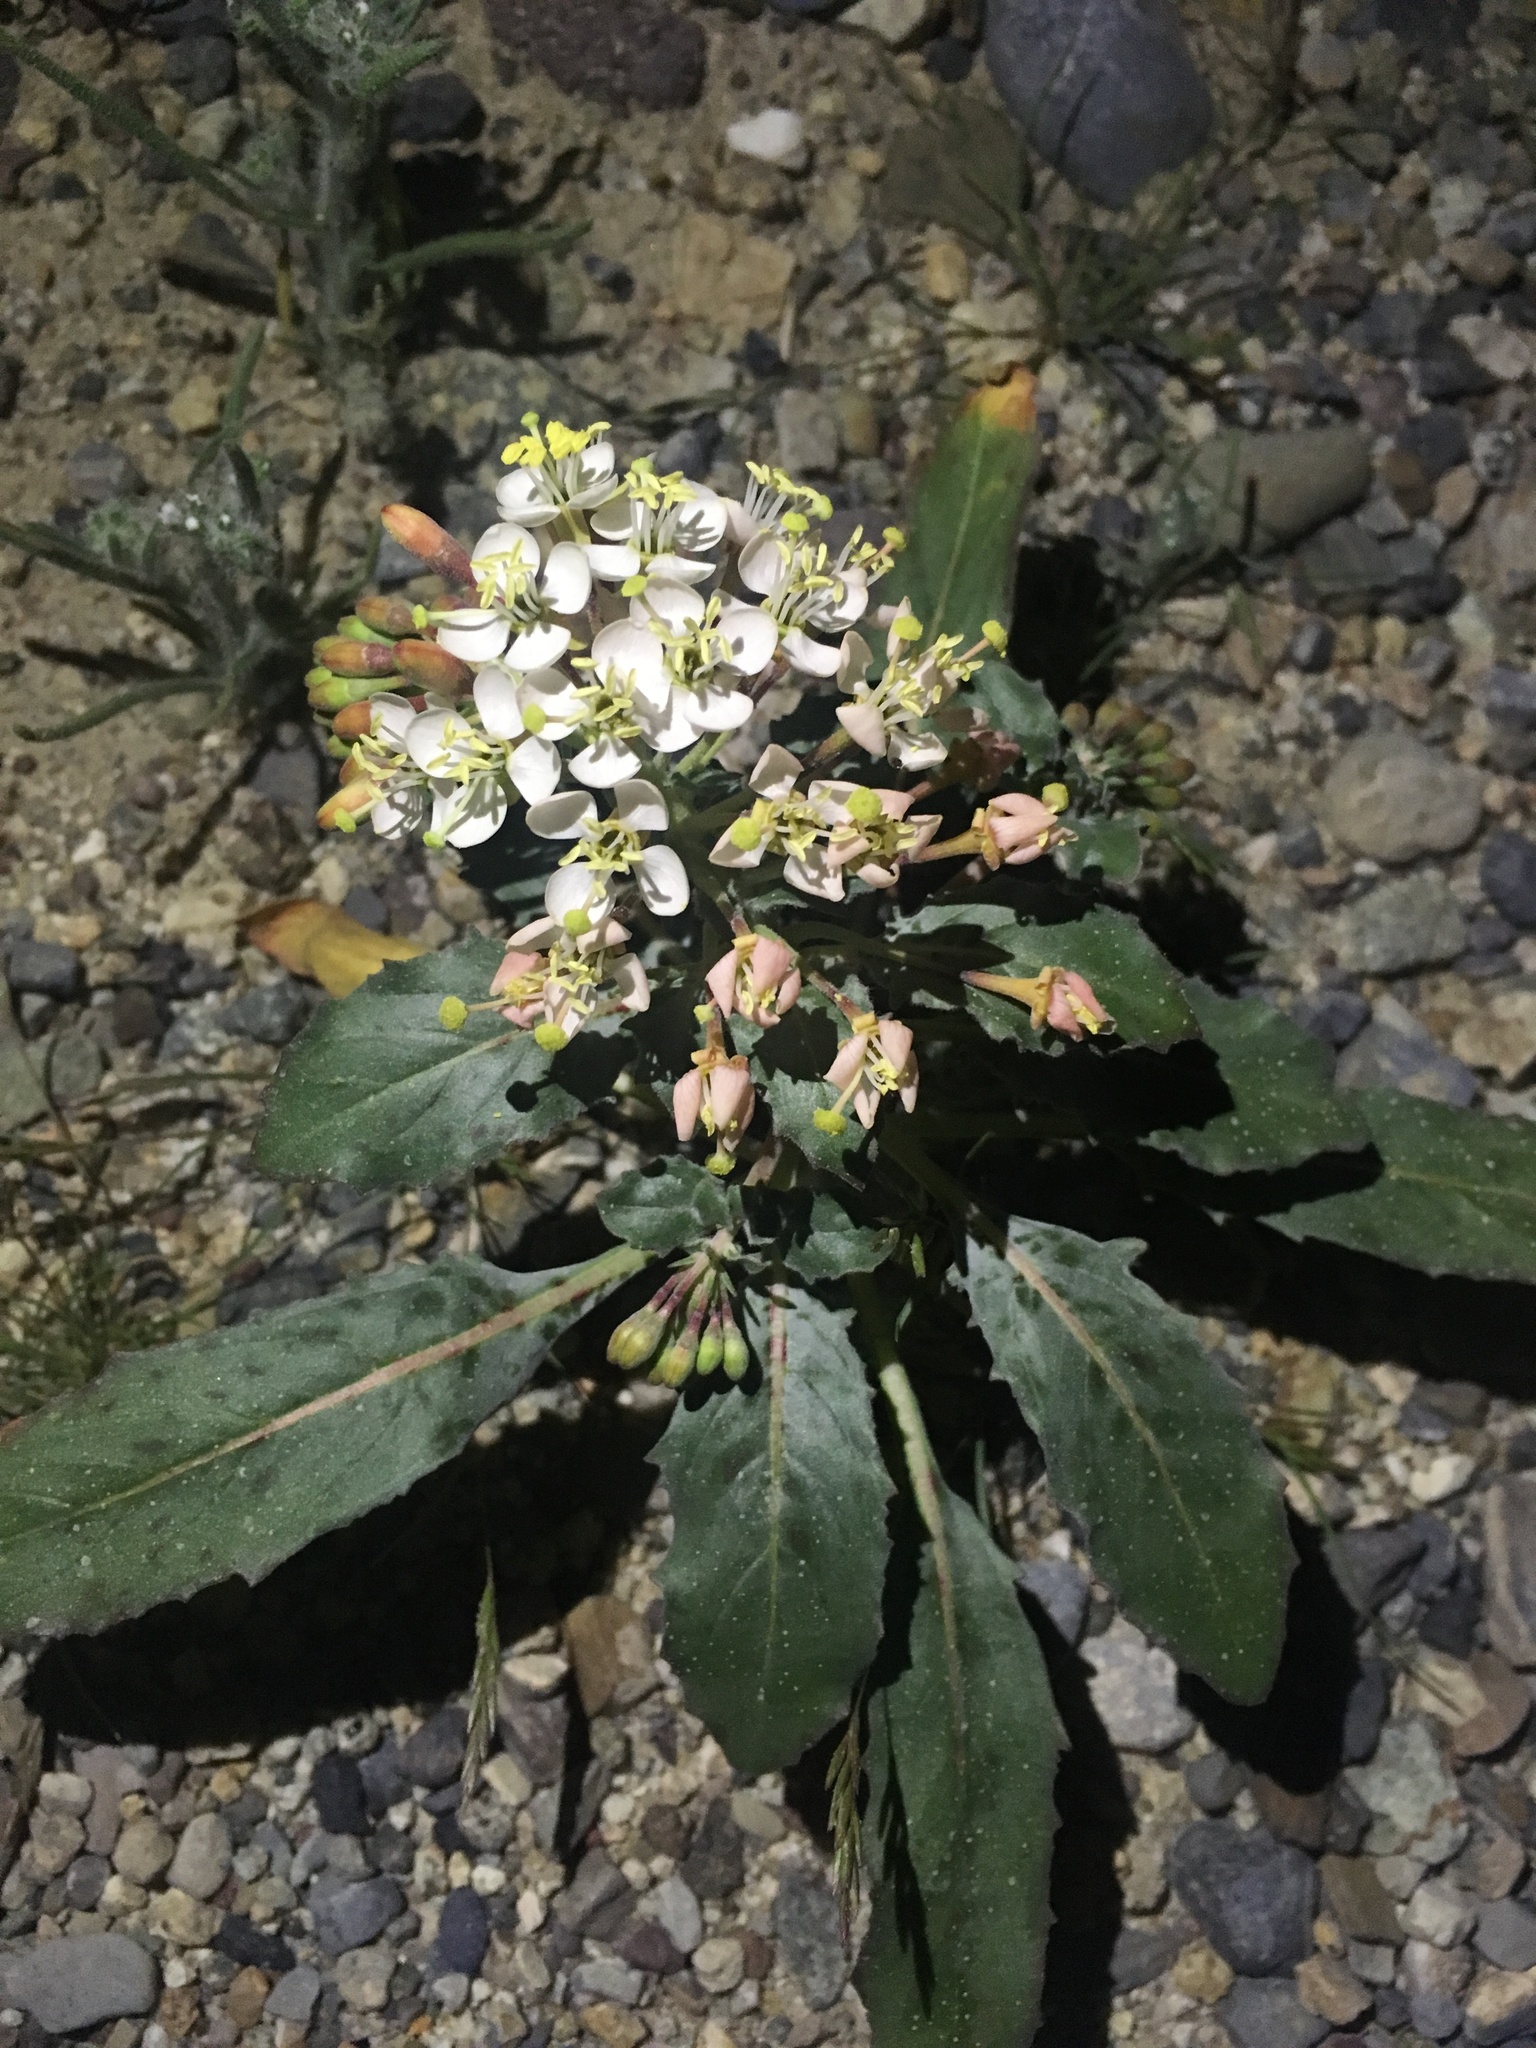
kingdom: Plantae
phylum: Tracheophyta
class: Magnoliopsida
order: Myrtales
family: Onagraceae
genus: Eremothera
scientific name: Eremothera boothii
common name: Booth's evening primrose
